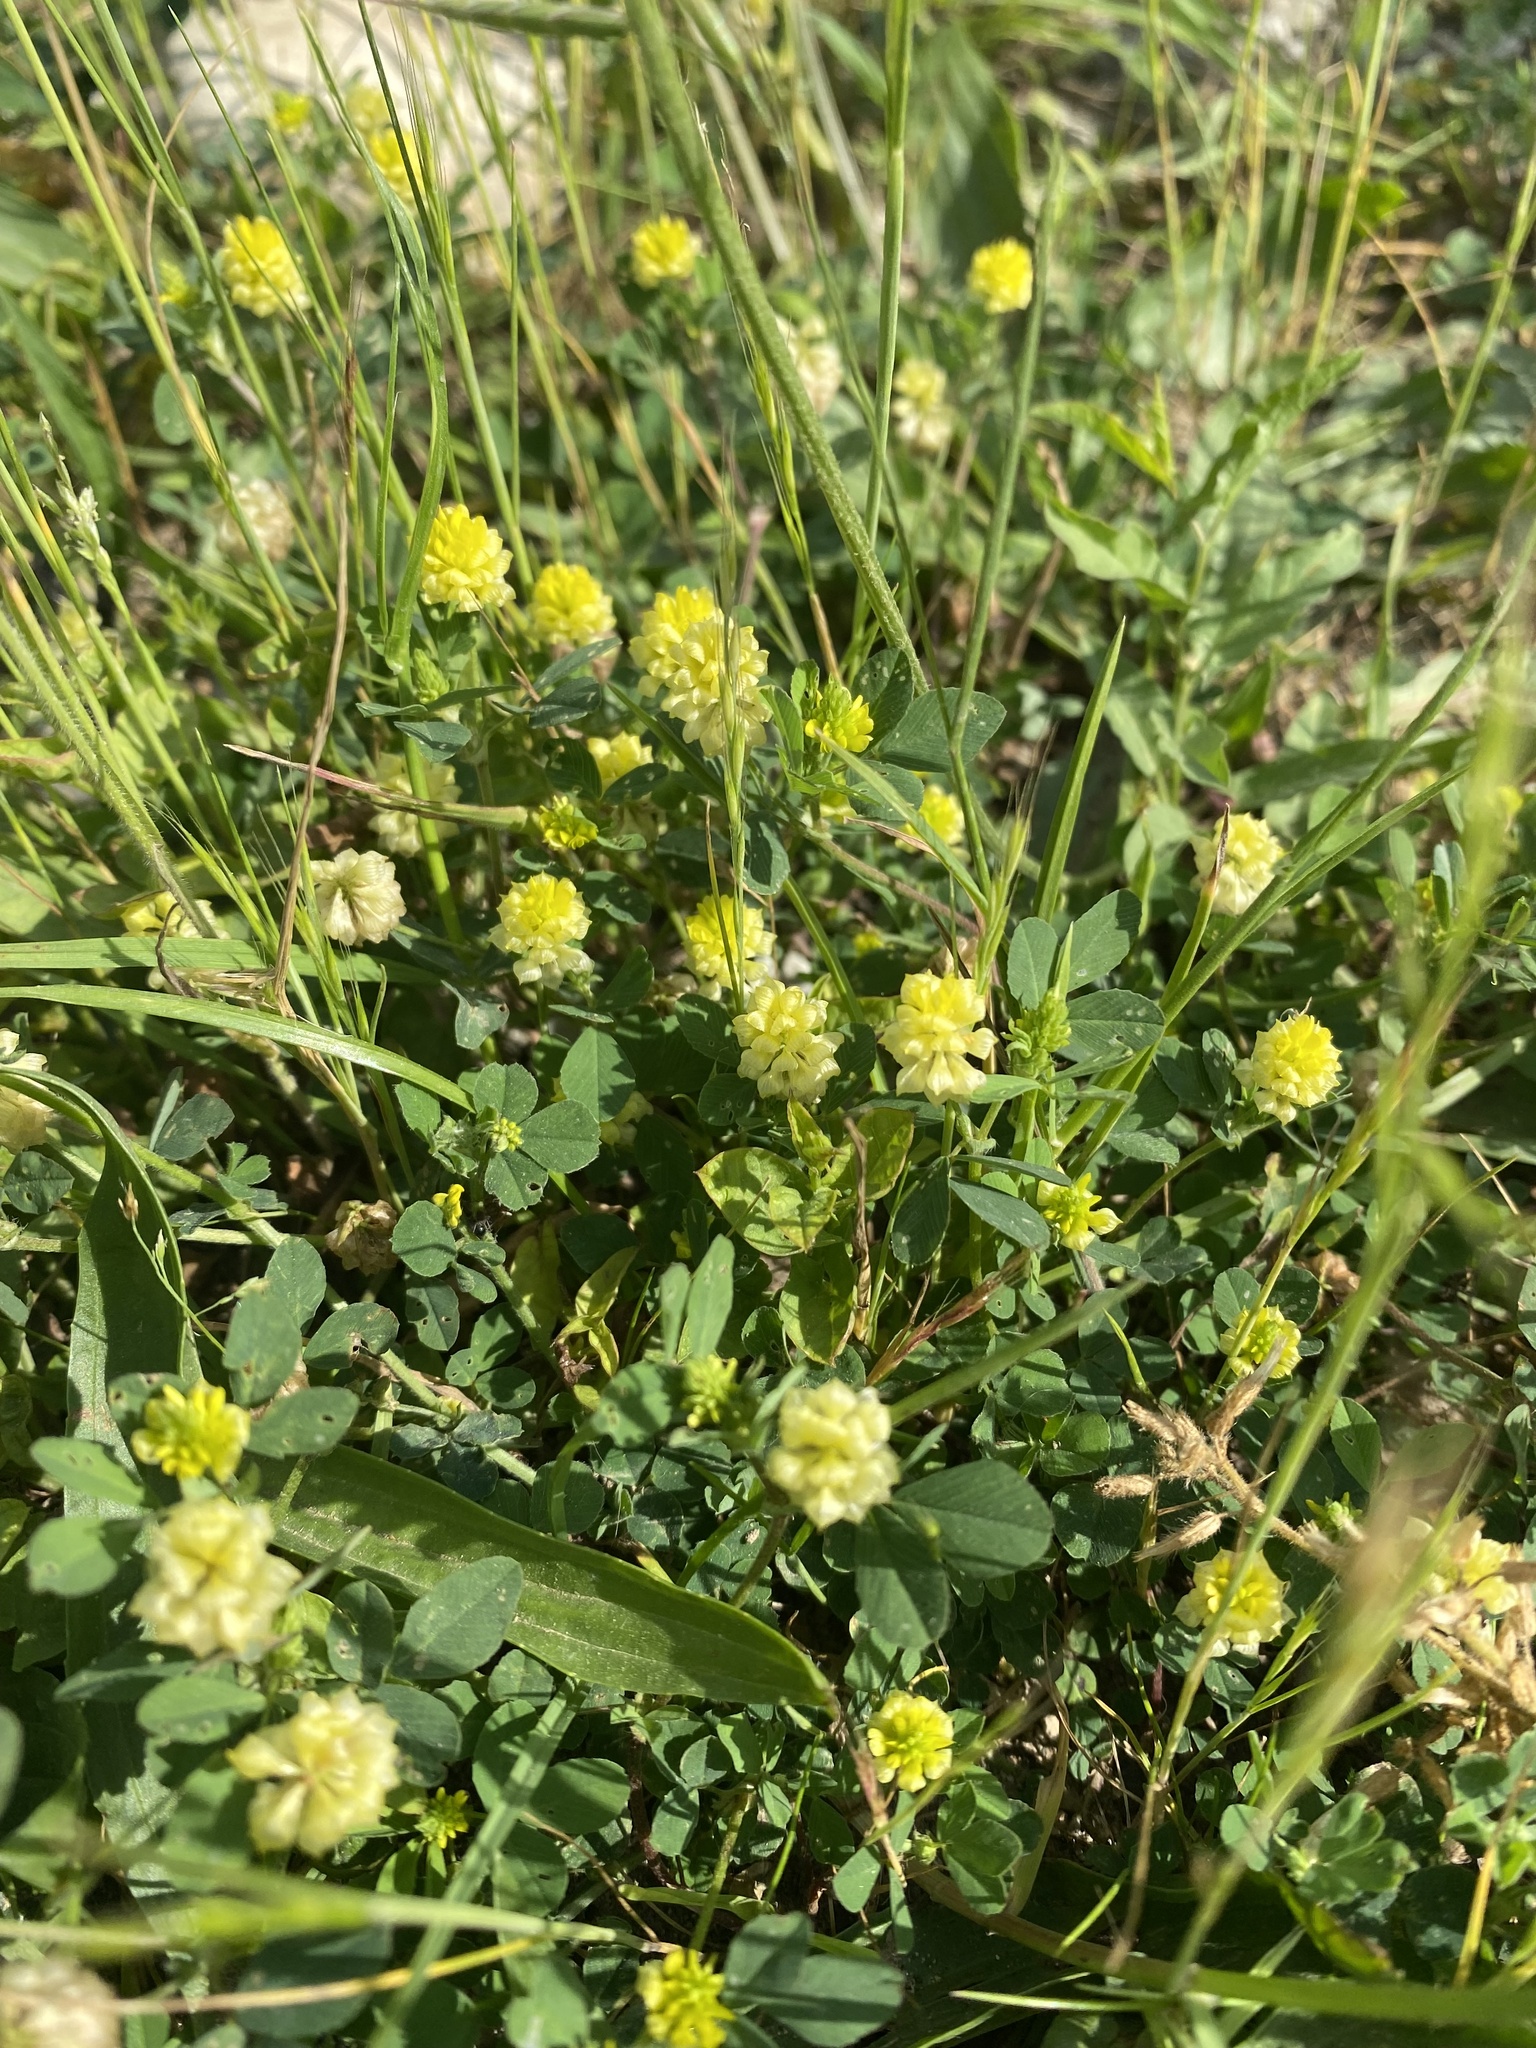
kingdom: Plantae
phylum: Tracheophyta
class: Magnoliopsida
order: Fabales
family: Fabaceae
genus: Trifolium
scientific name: Trifolium campestre
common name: Field clover
